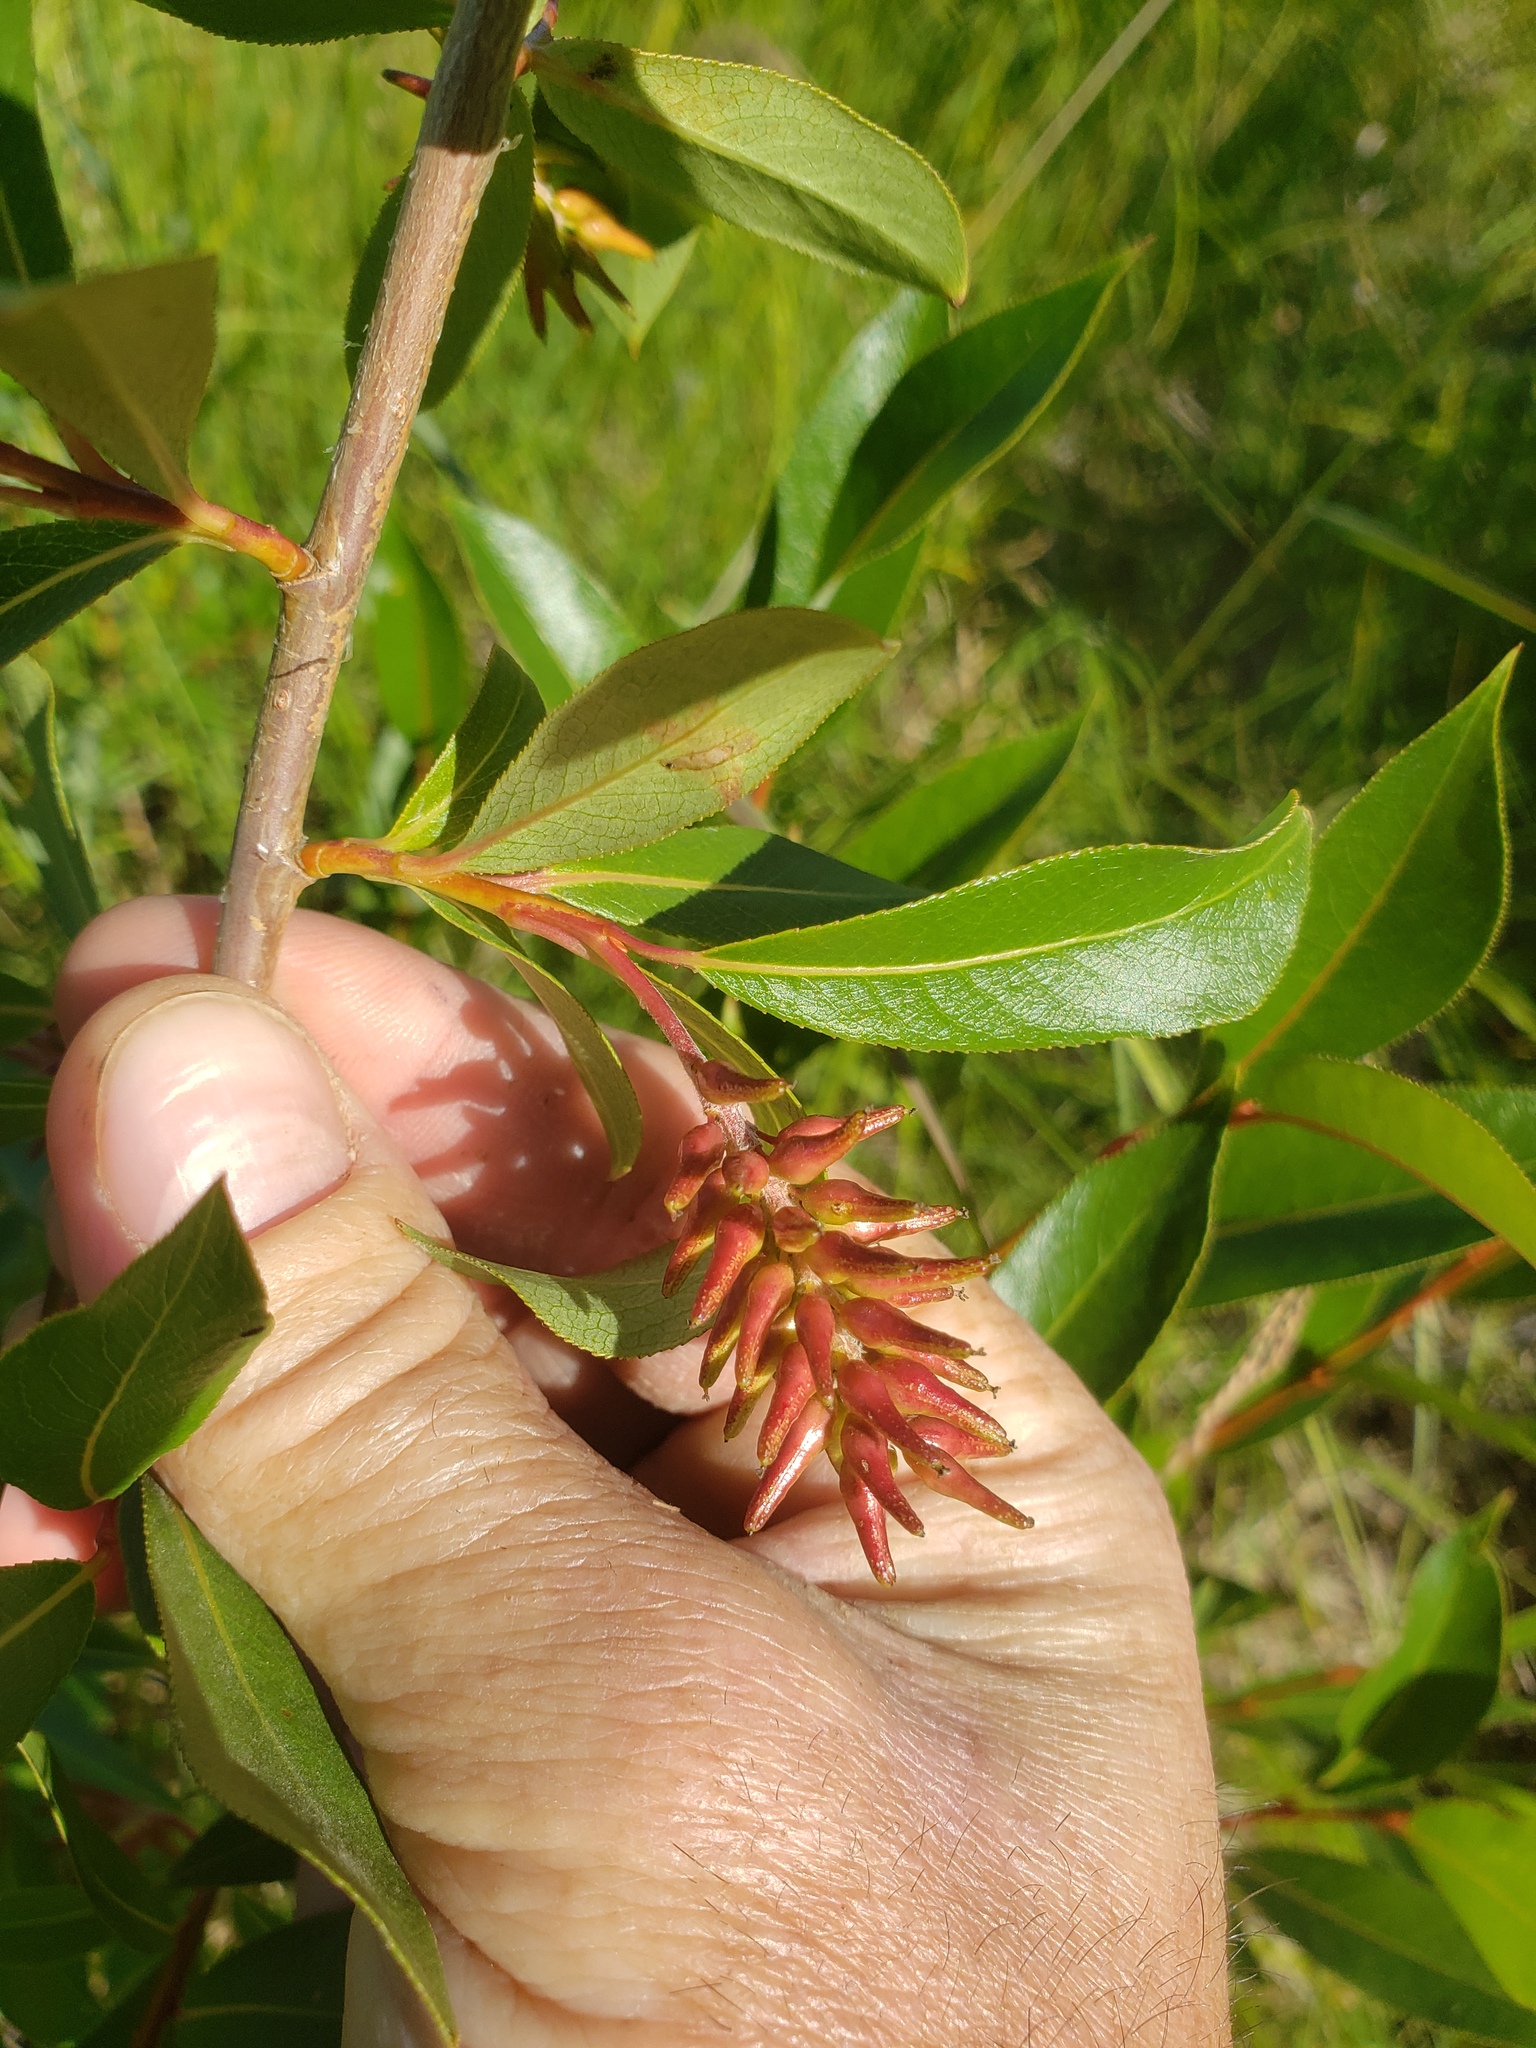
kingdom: Plantae
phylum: Tracheophyta
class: Magnoliopsida
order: Malpighiales
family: Salicaceae
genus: Salix
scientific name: Salix serissima
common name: Autumn willow
